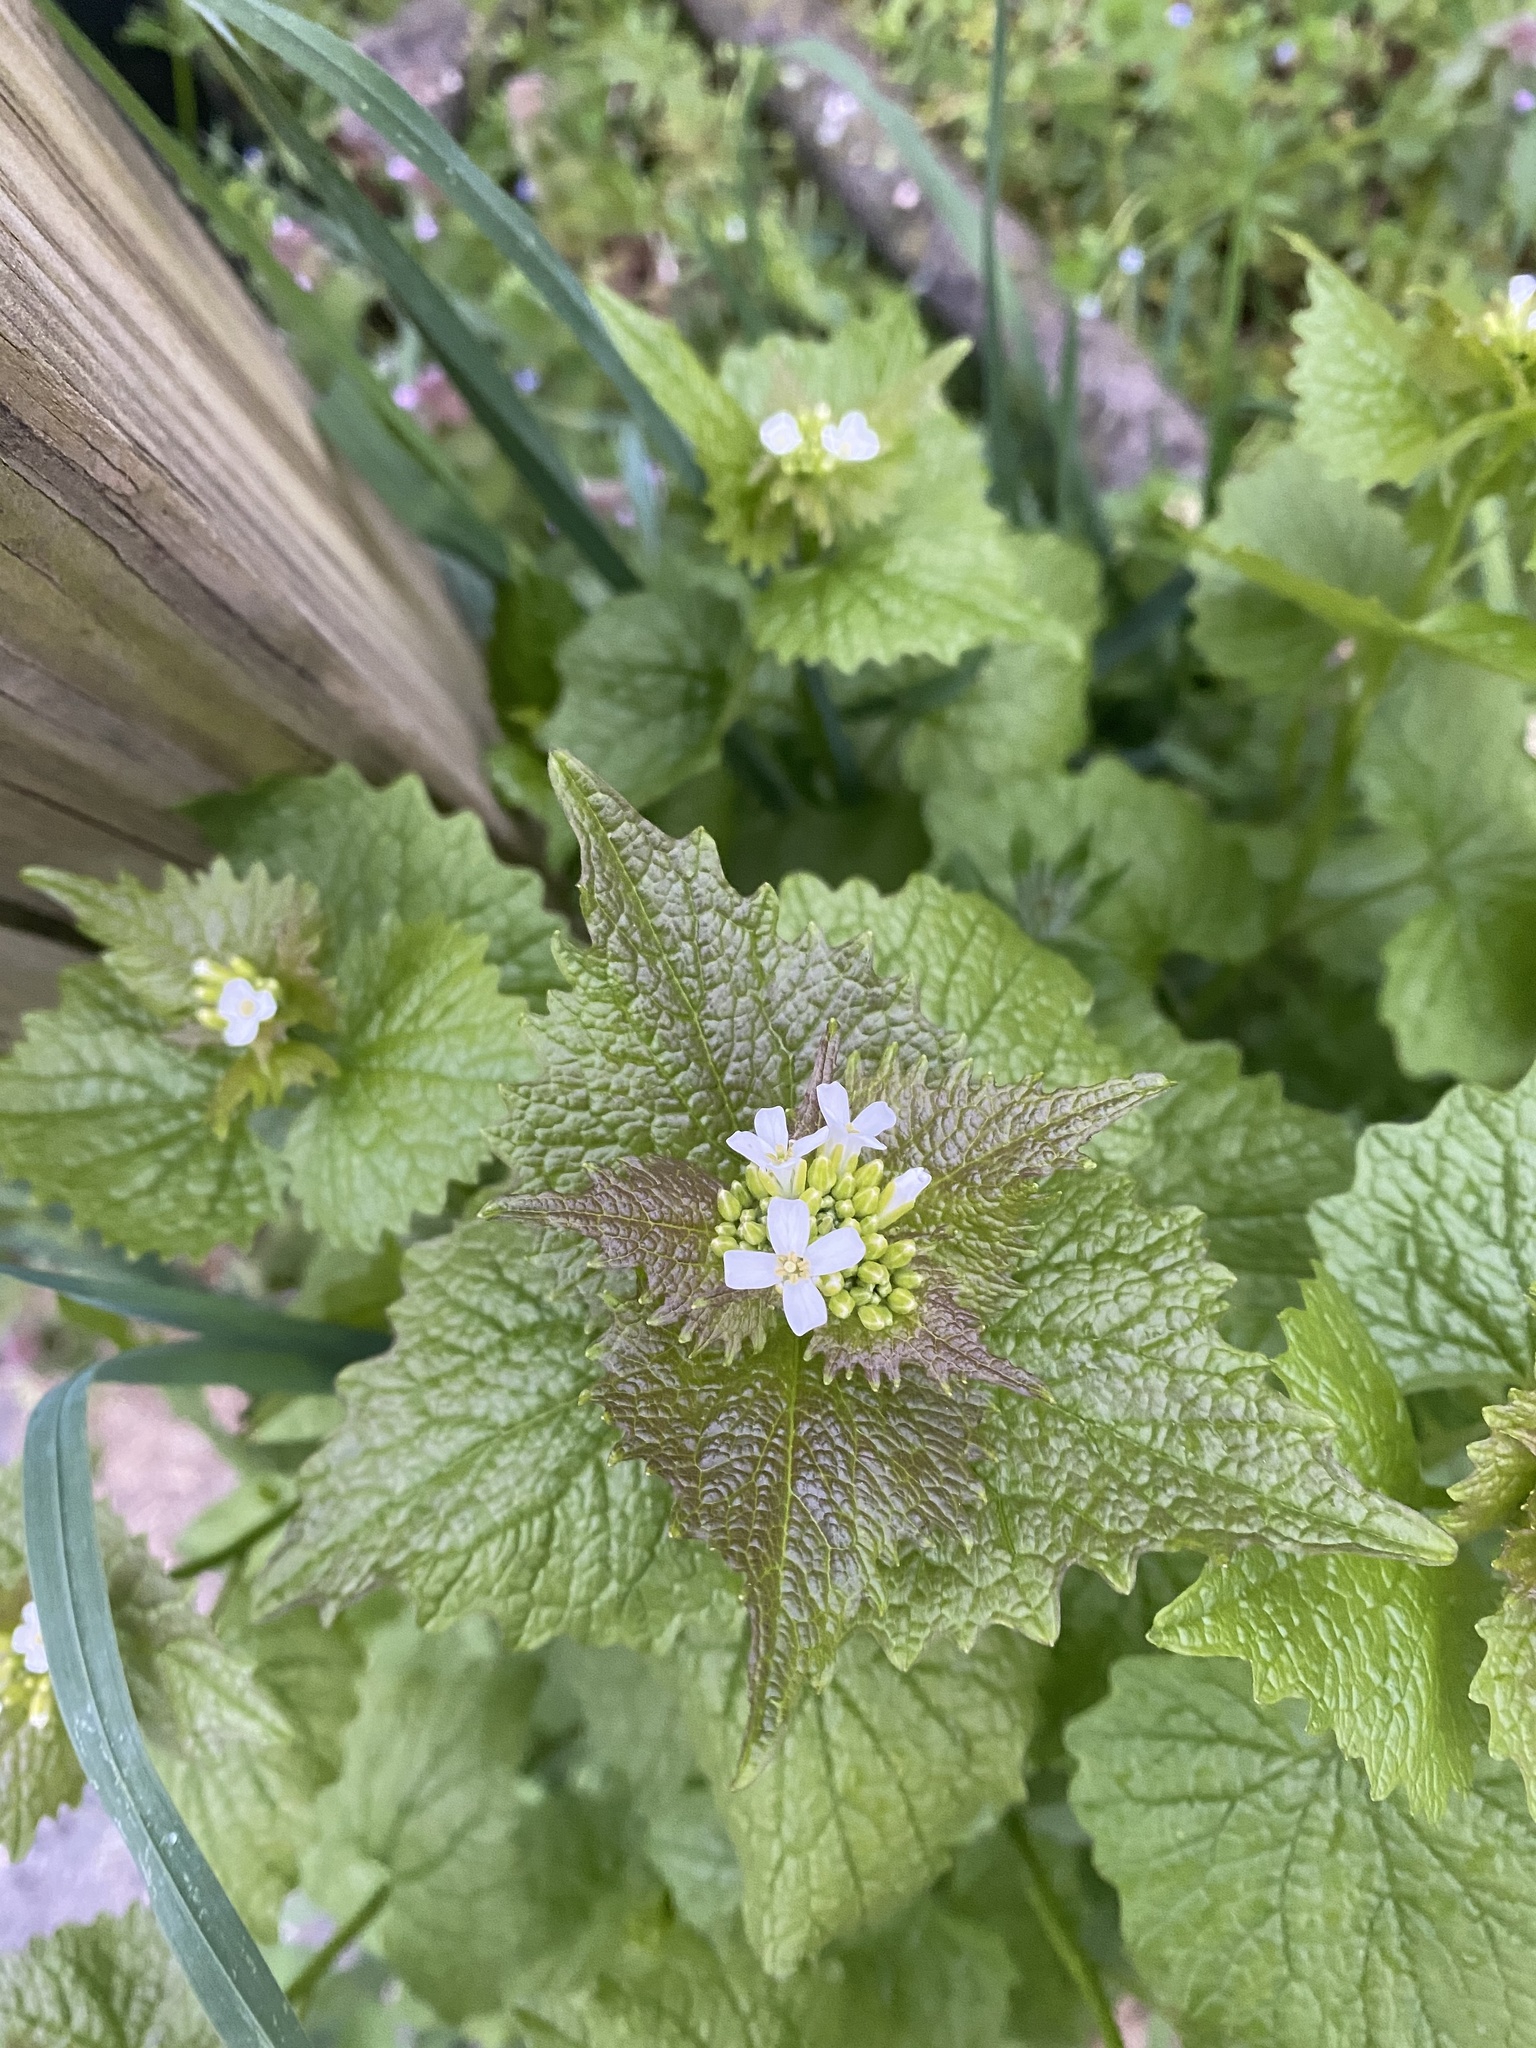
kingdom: Plantae
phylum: Tracheophyta
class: Magnoliopsida
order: Brassicales
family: Brassicaceae
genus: Alliaria
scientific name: Alliaria petiolata
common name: Garlic mustard
